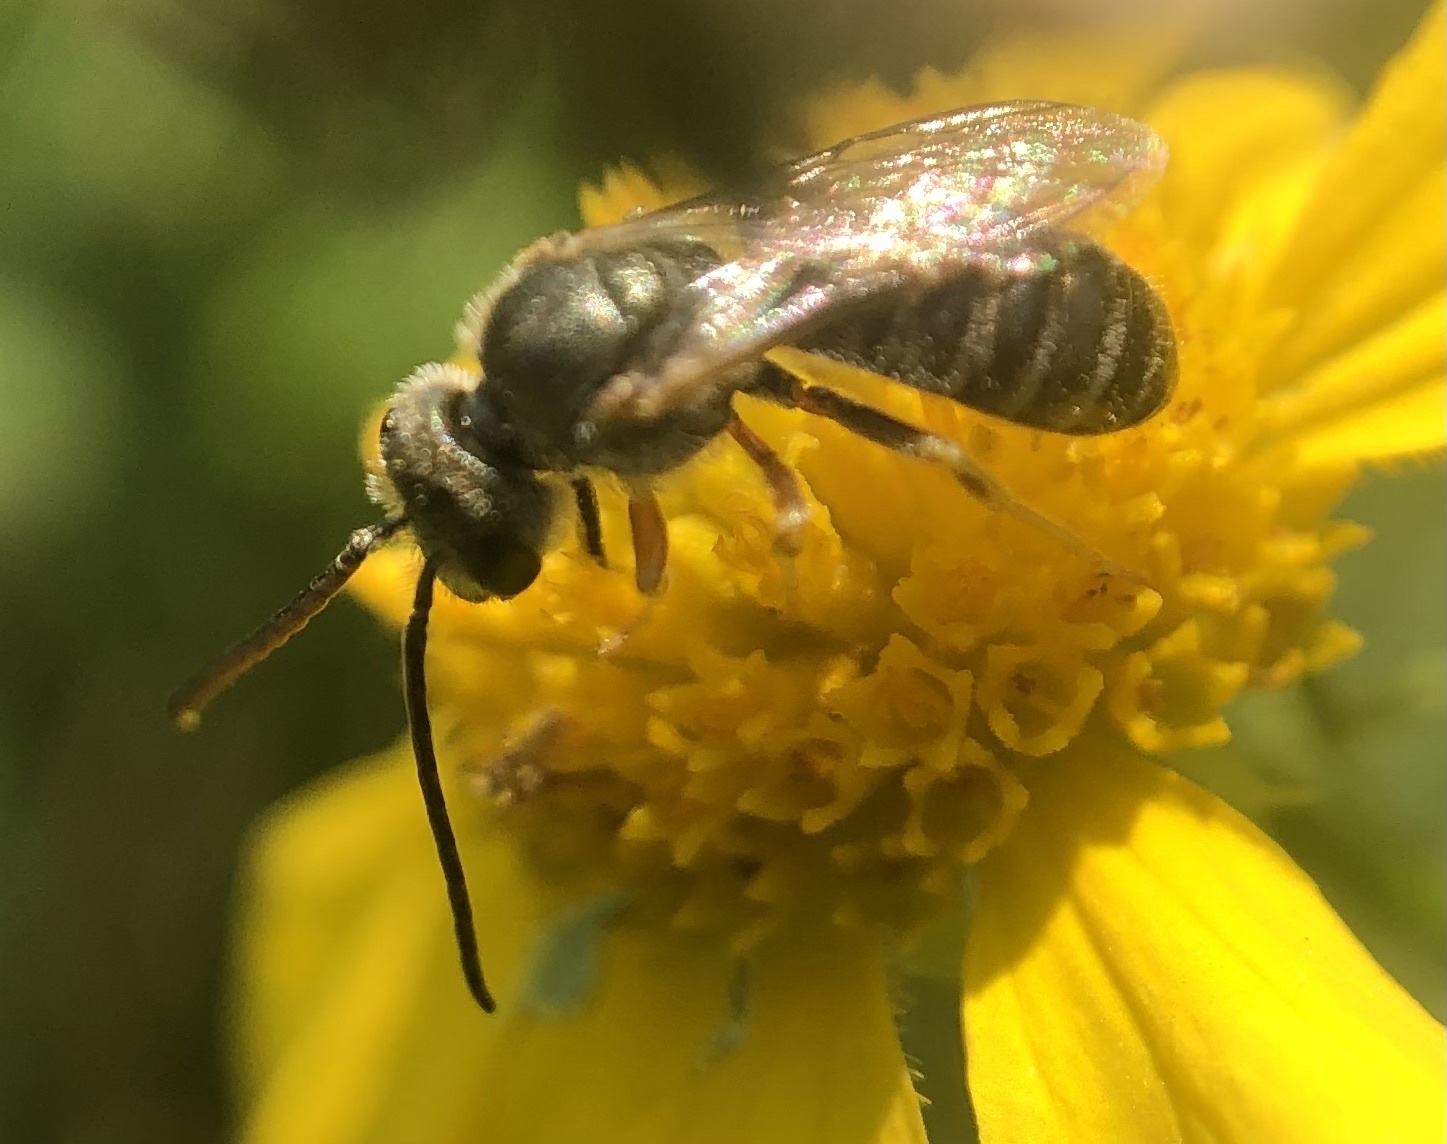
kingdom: Animalia
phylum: Arthropoda
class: Insecta
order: Hymenoptera
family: Halictidae
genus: Halictus
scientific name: Halictus confusus
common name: Southern bronze furrow bee
